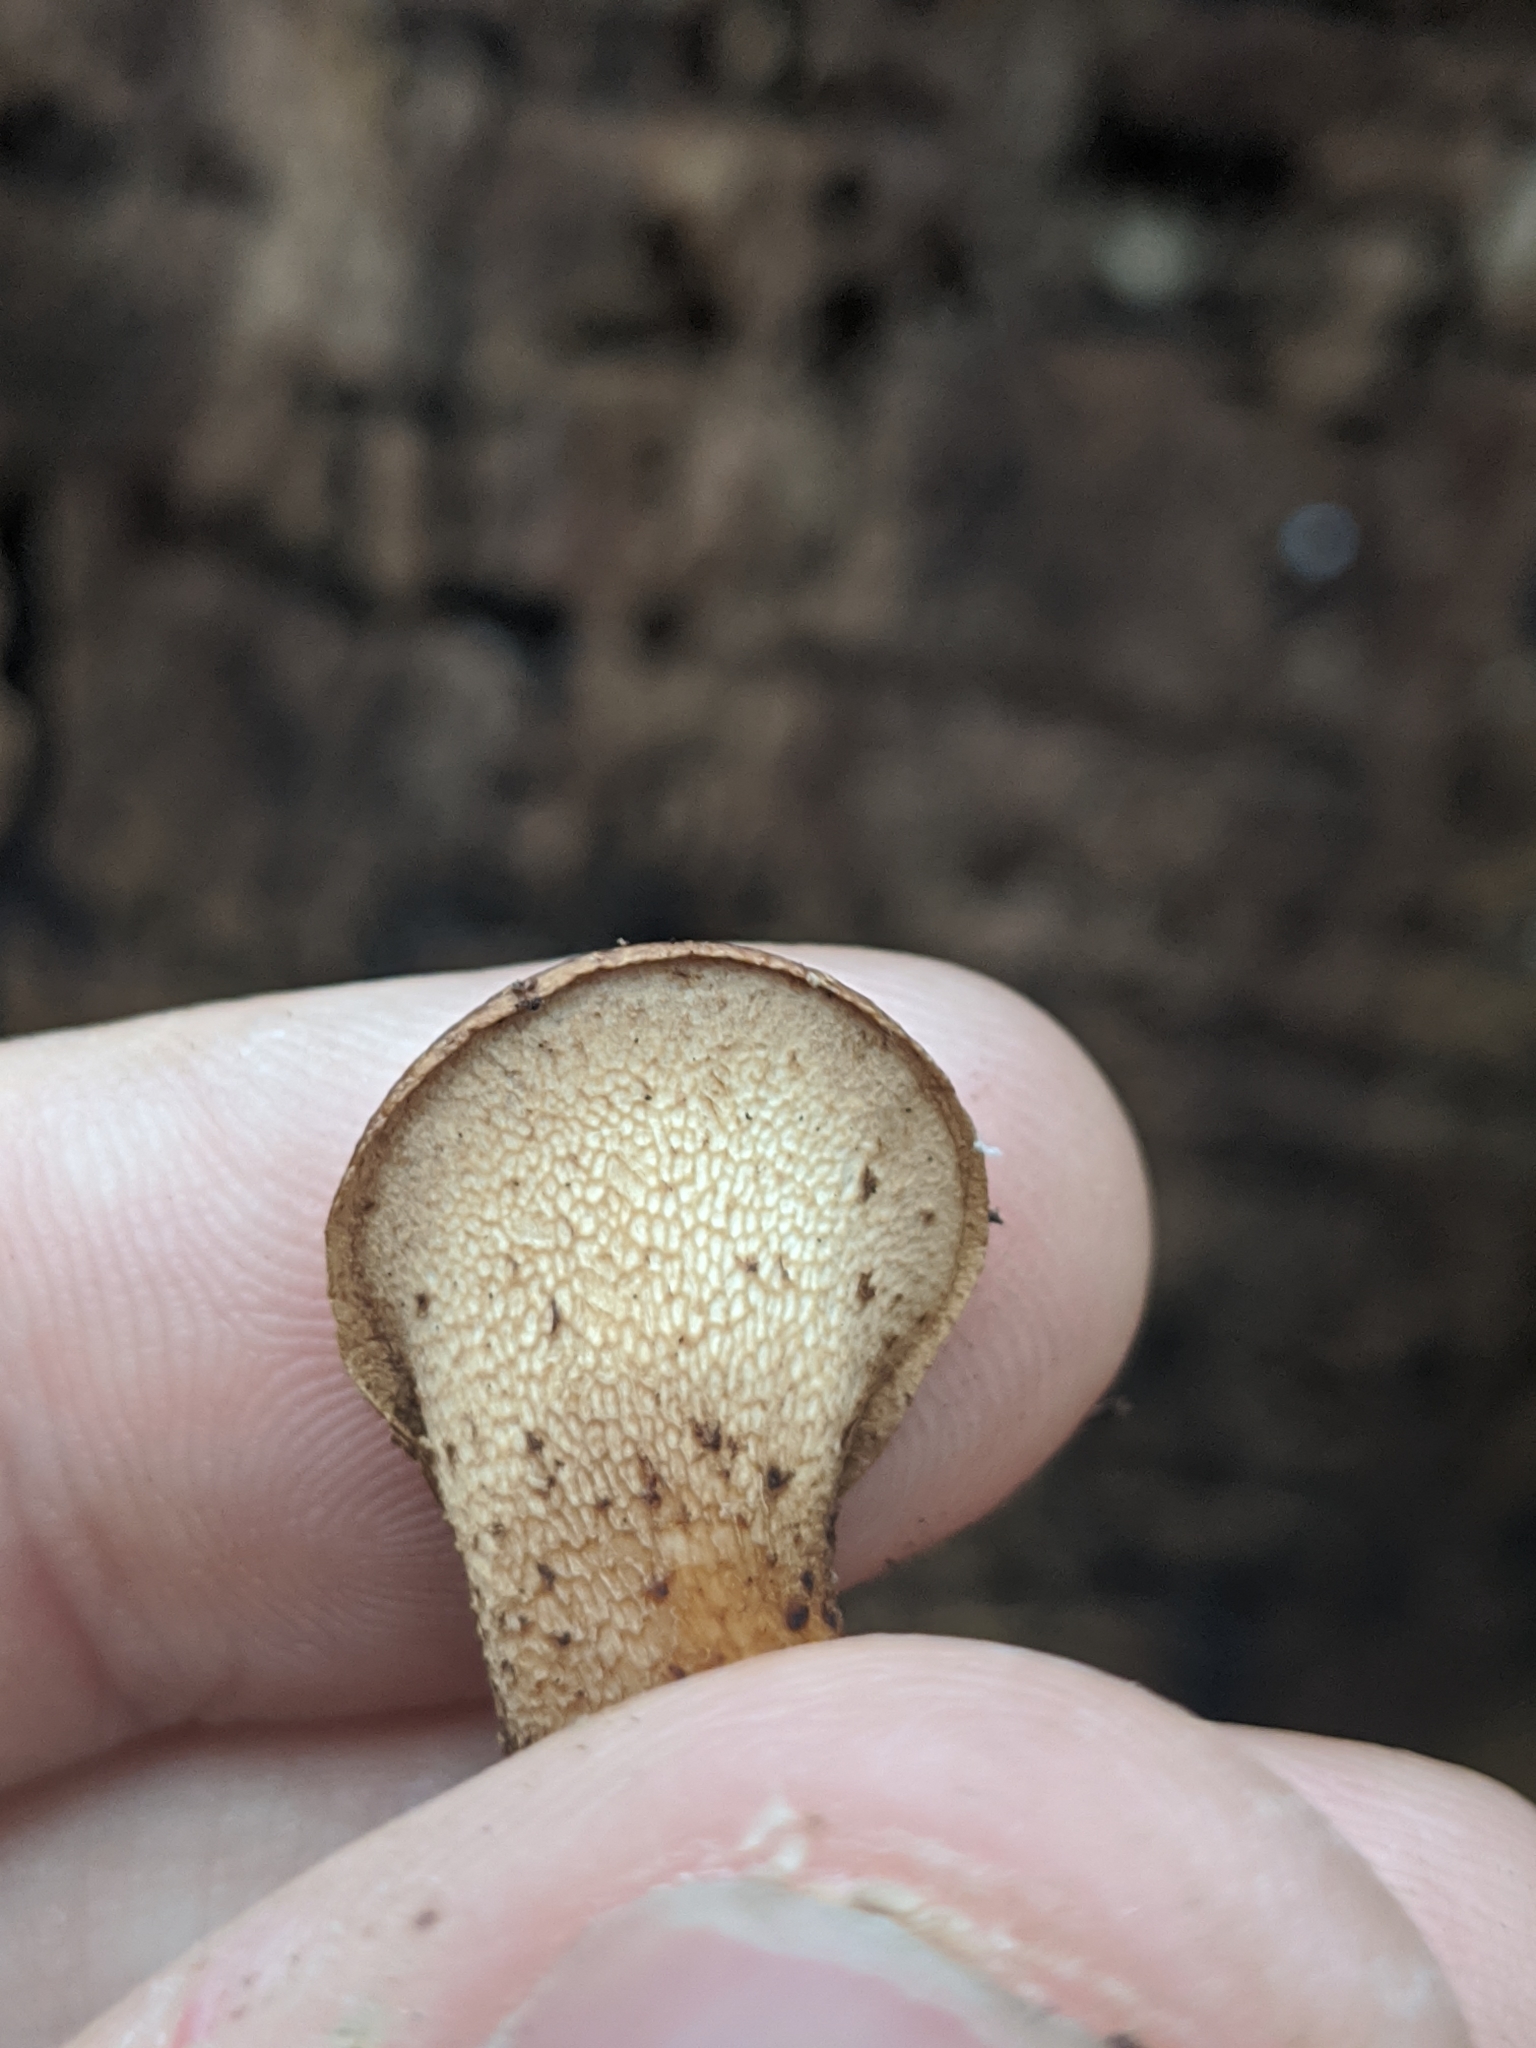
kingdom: Fungi
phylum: Basidiomycota
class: Agaricomycetes
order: Polyporales
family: Polyporaceae
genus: Cerioporus
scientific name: Cerioporus squamosus
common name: Dryad's saddle
